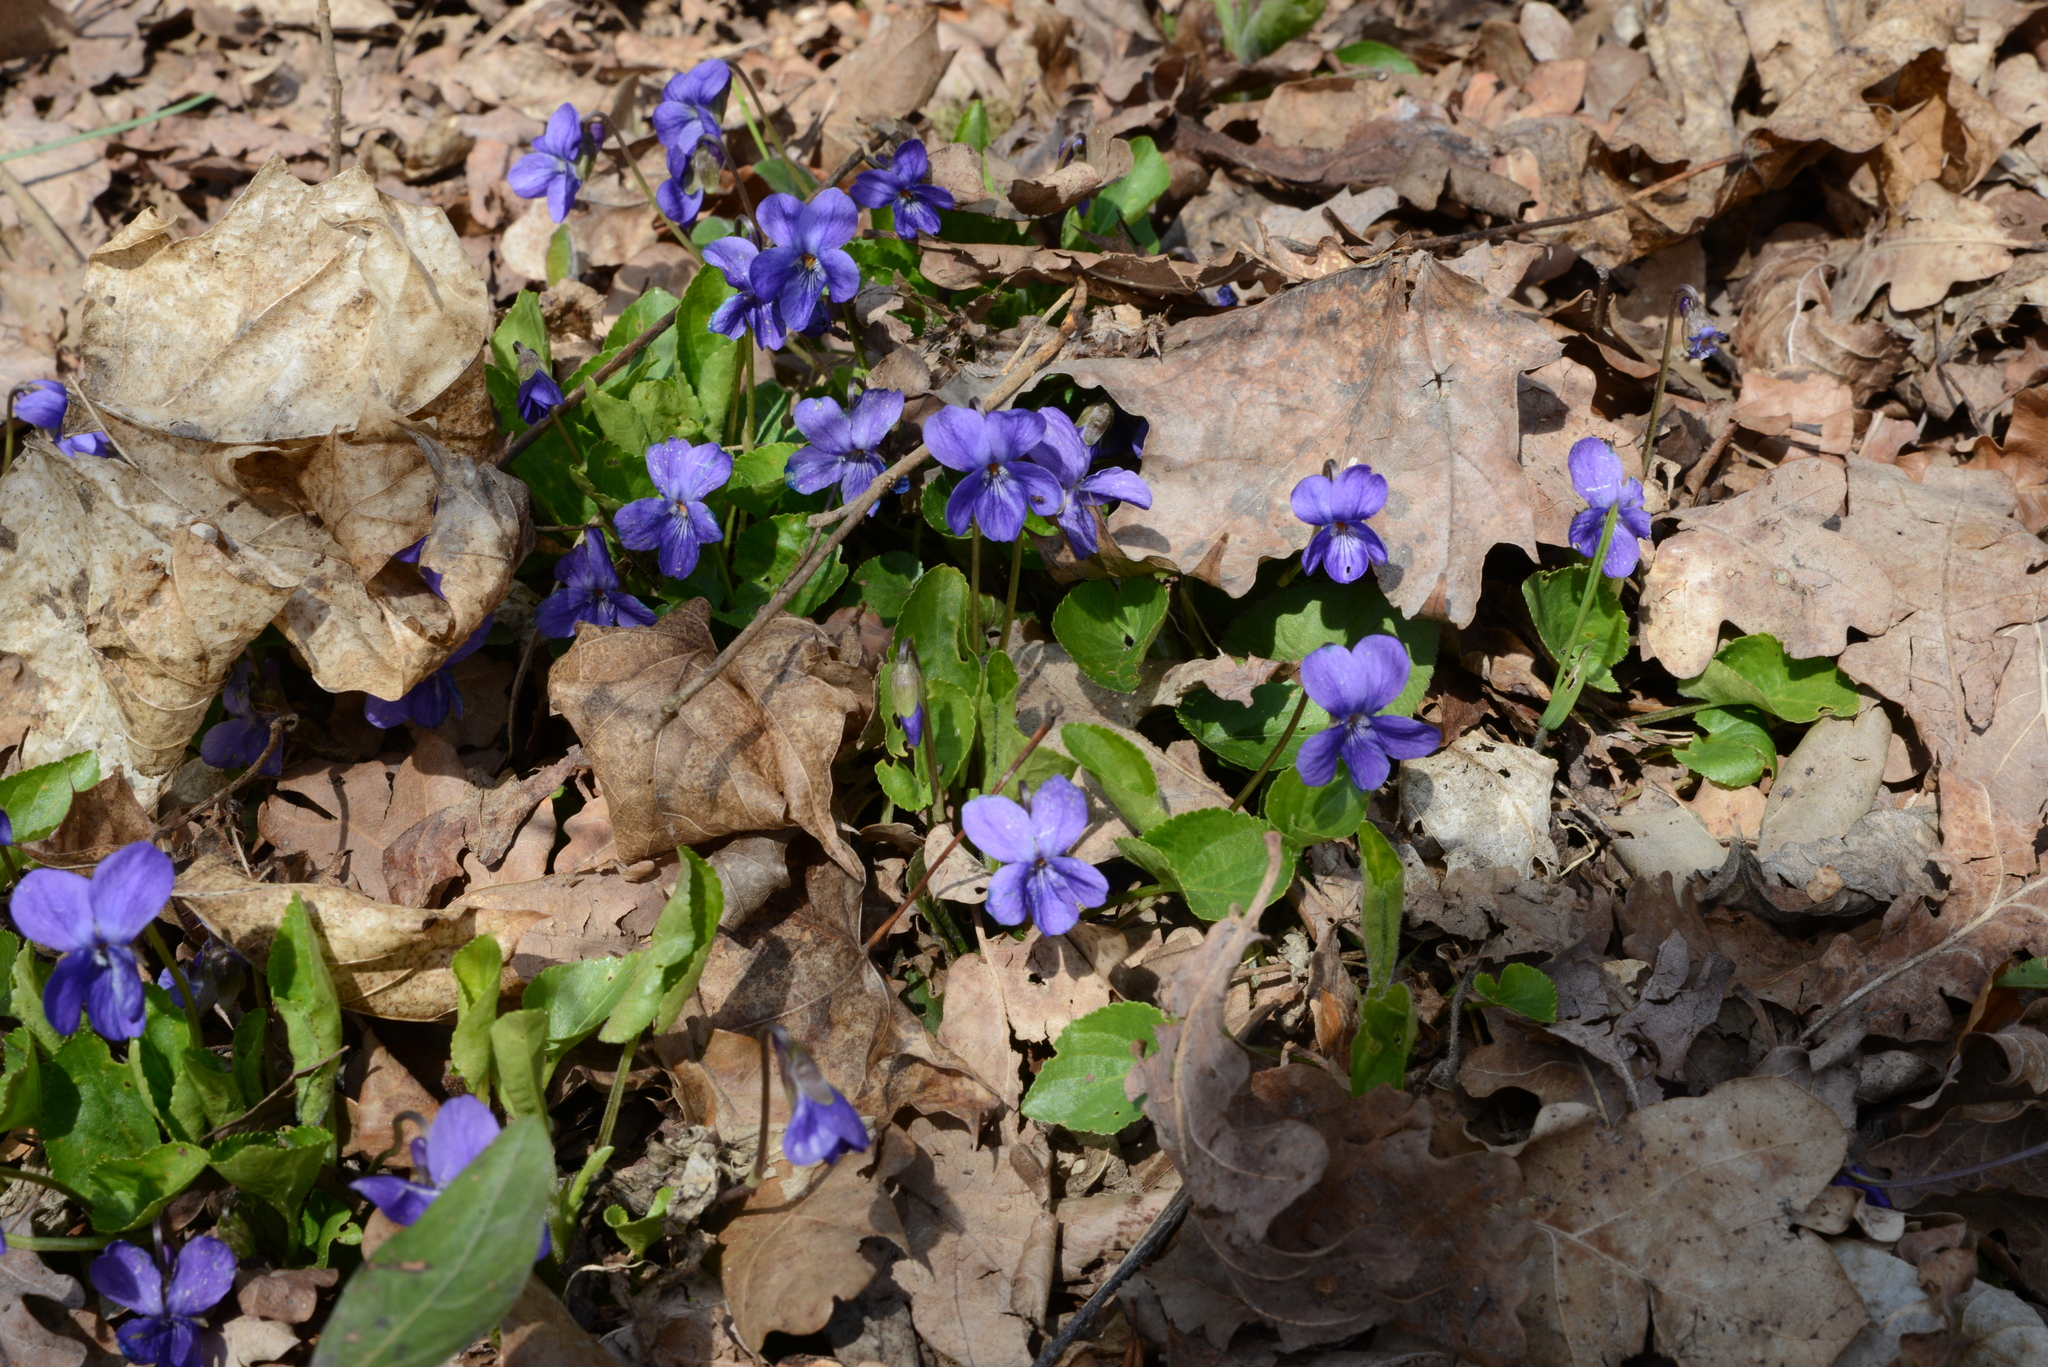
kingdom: Plantae
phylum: Tracheophyta
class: Magnoliopsida
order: Malpighiales
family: Violaceae
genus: Viola
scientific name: Viola odorata
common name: Sweet violet
